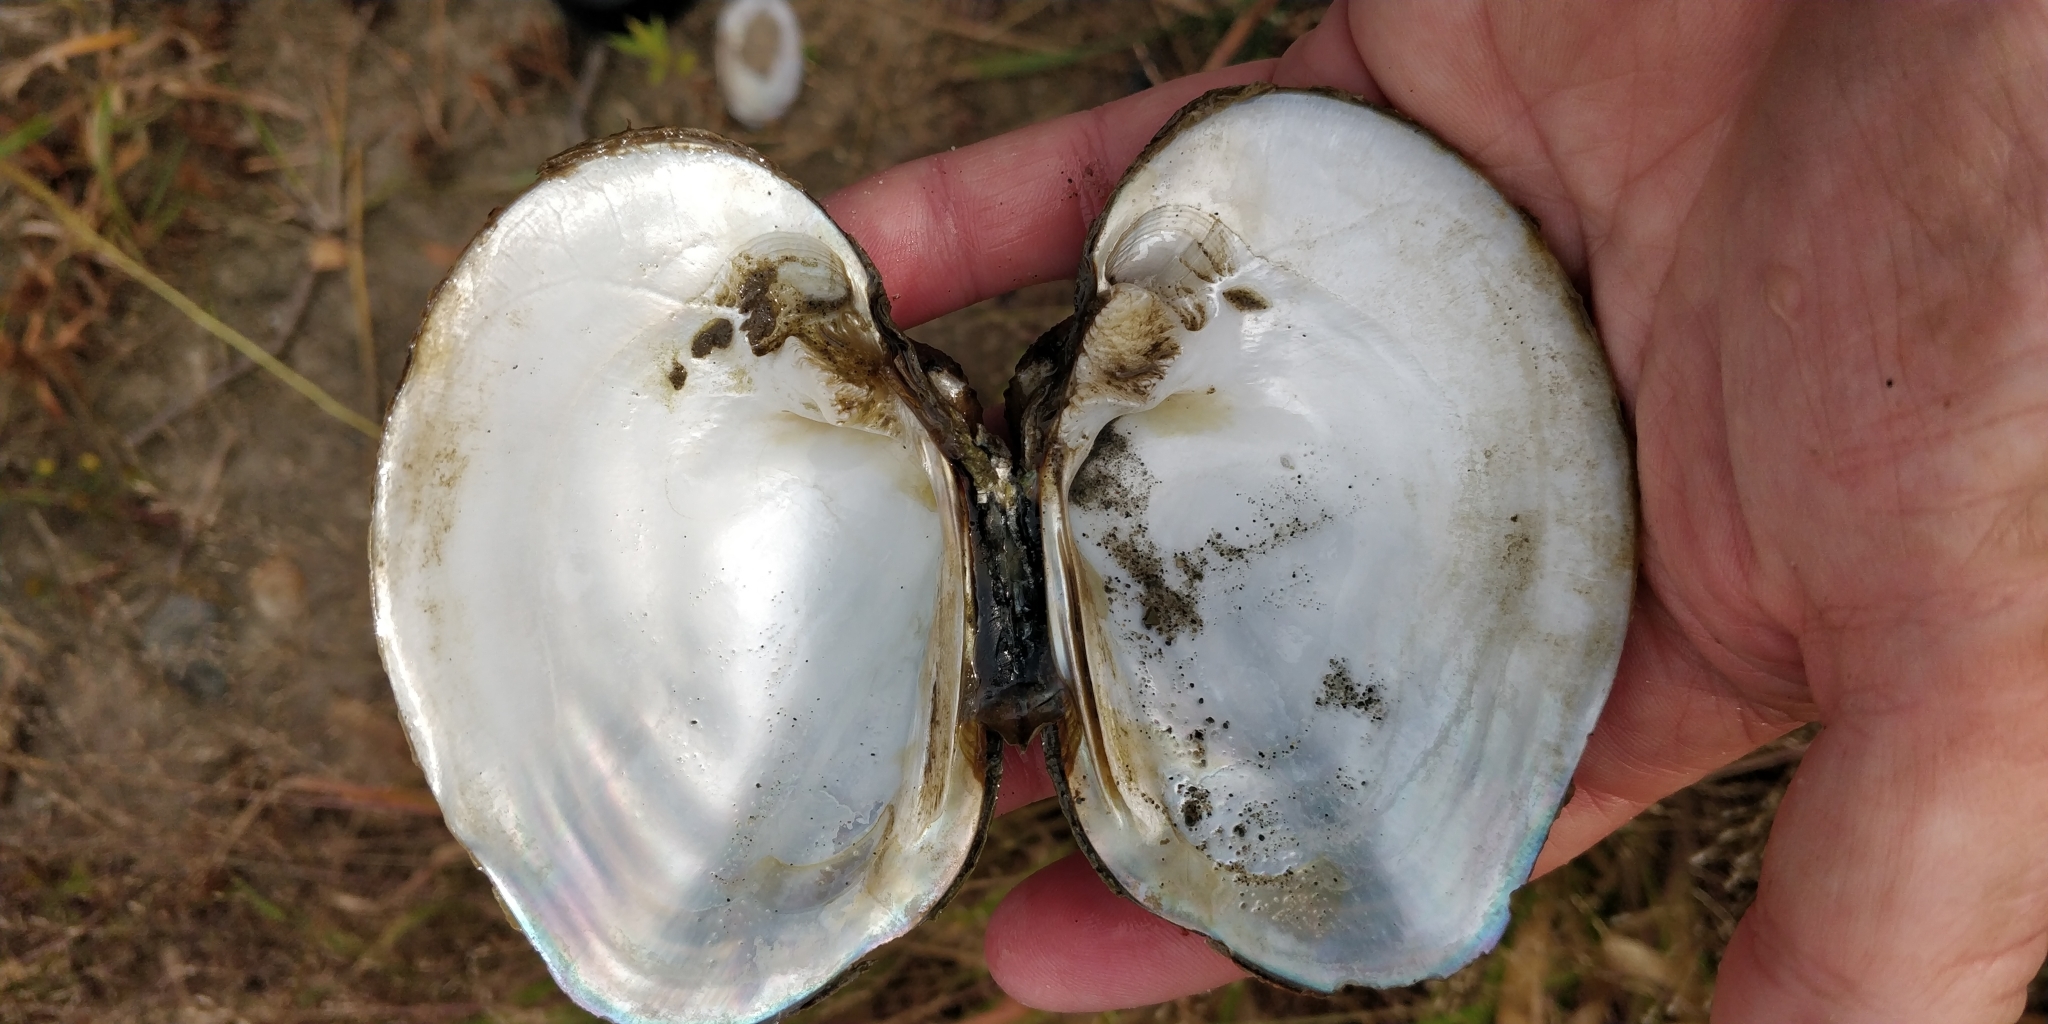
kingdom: Animalia
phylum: Mollusca
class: Bivalvia
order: Unionida
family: Unionidae
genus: Quadrula
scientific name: Quadrula quadrula
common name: Mapleleaf
